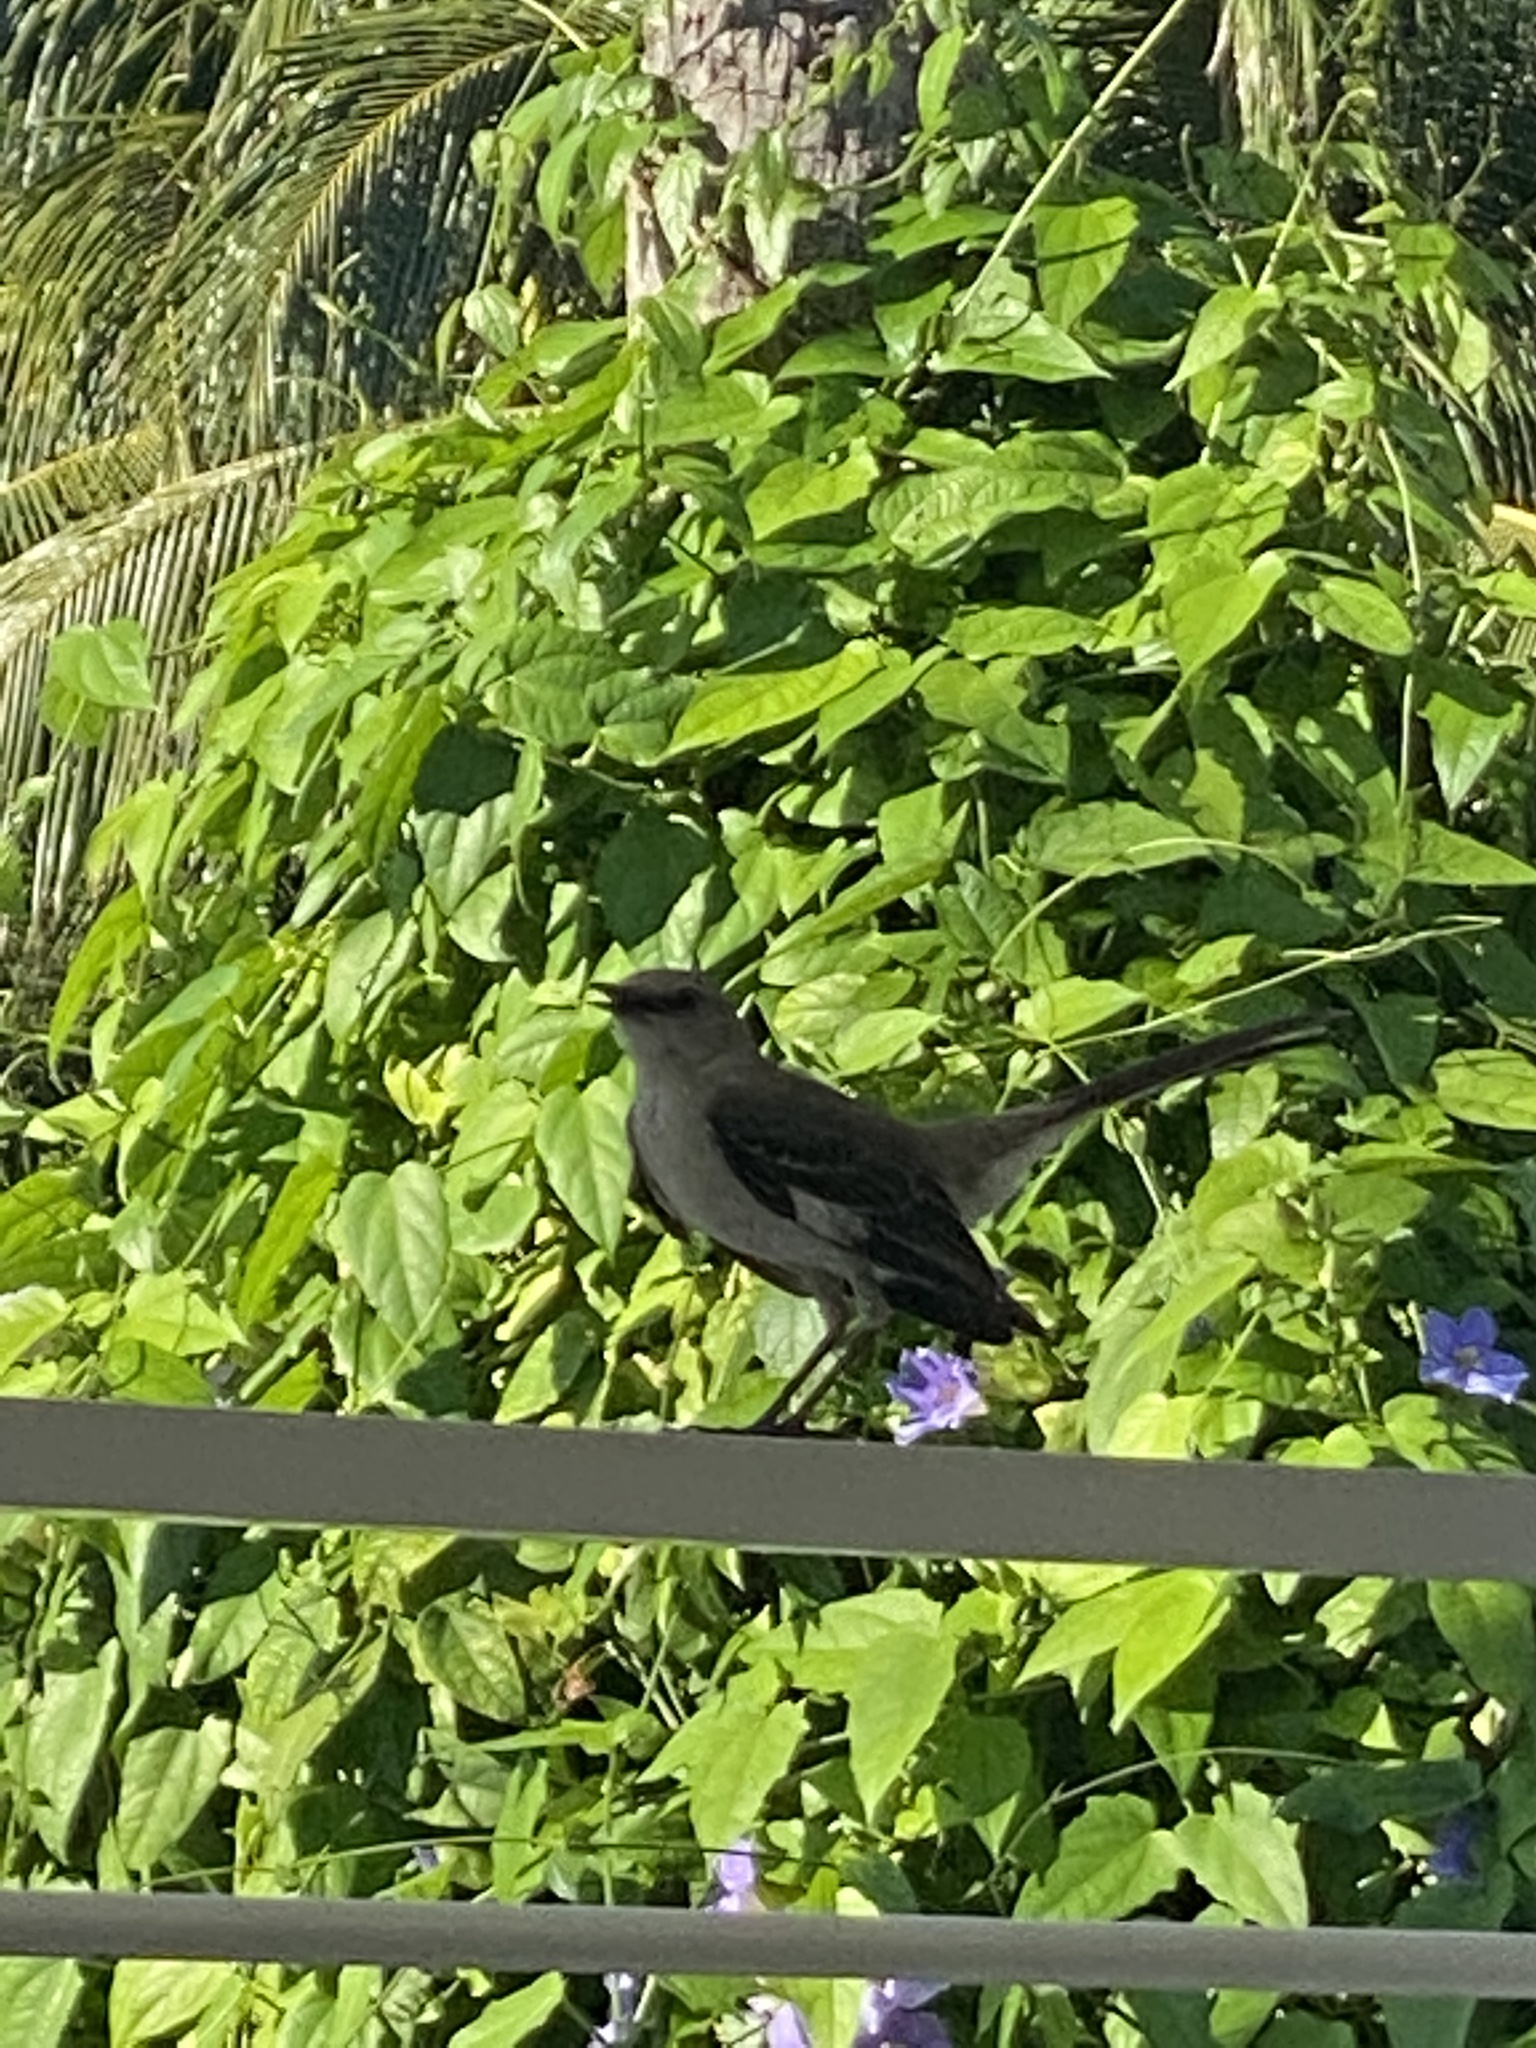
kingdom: Animalia
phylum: Chordata
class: Aves
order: Passeriformes
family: Mimidae
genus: Mimus
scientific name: Mimus polyglottos
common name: Northern mockingbird
